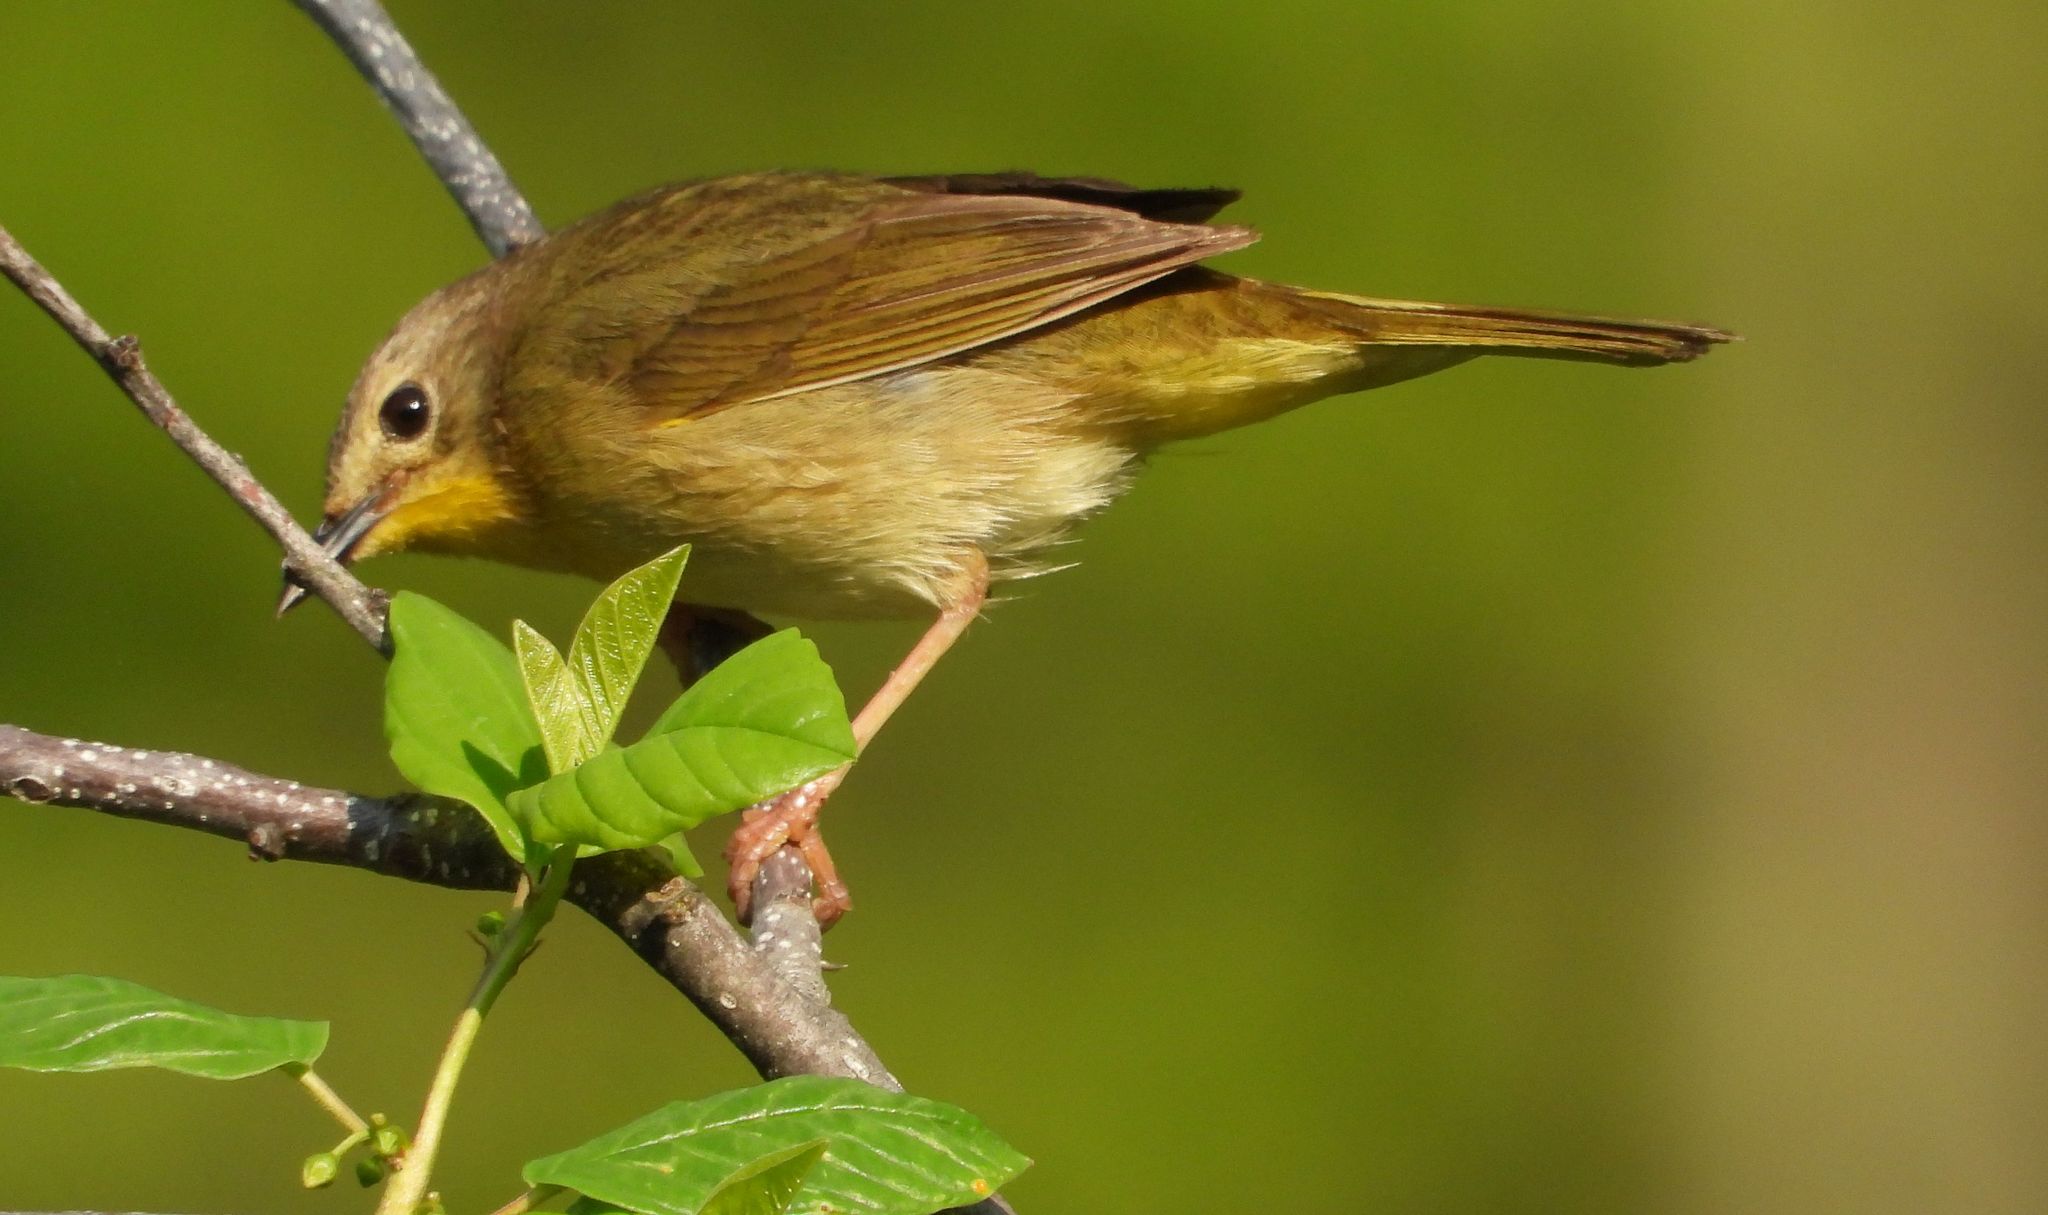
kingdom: Animalia
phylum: Chordata
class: Aves
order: Passeriformes
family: Parulidae
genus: Geothlypis
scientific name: Geothlypis trichas
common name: Common yellowthroat
